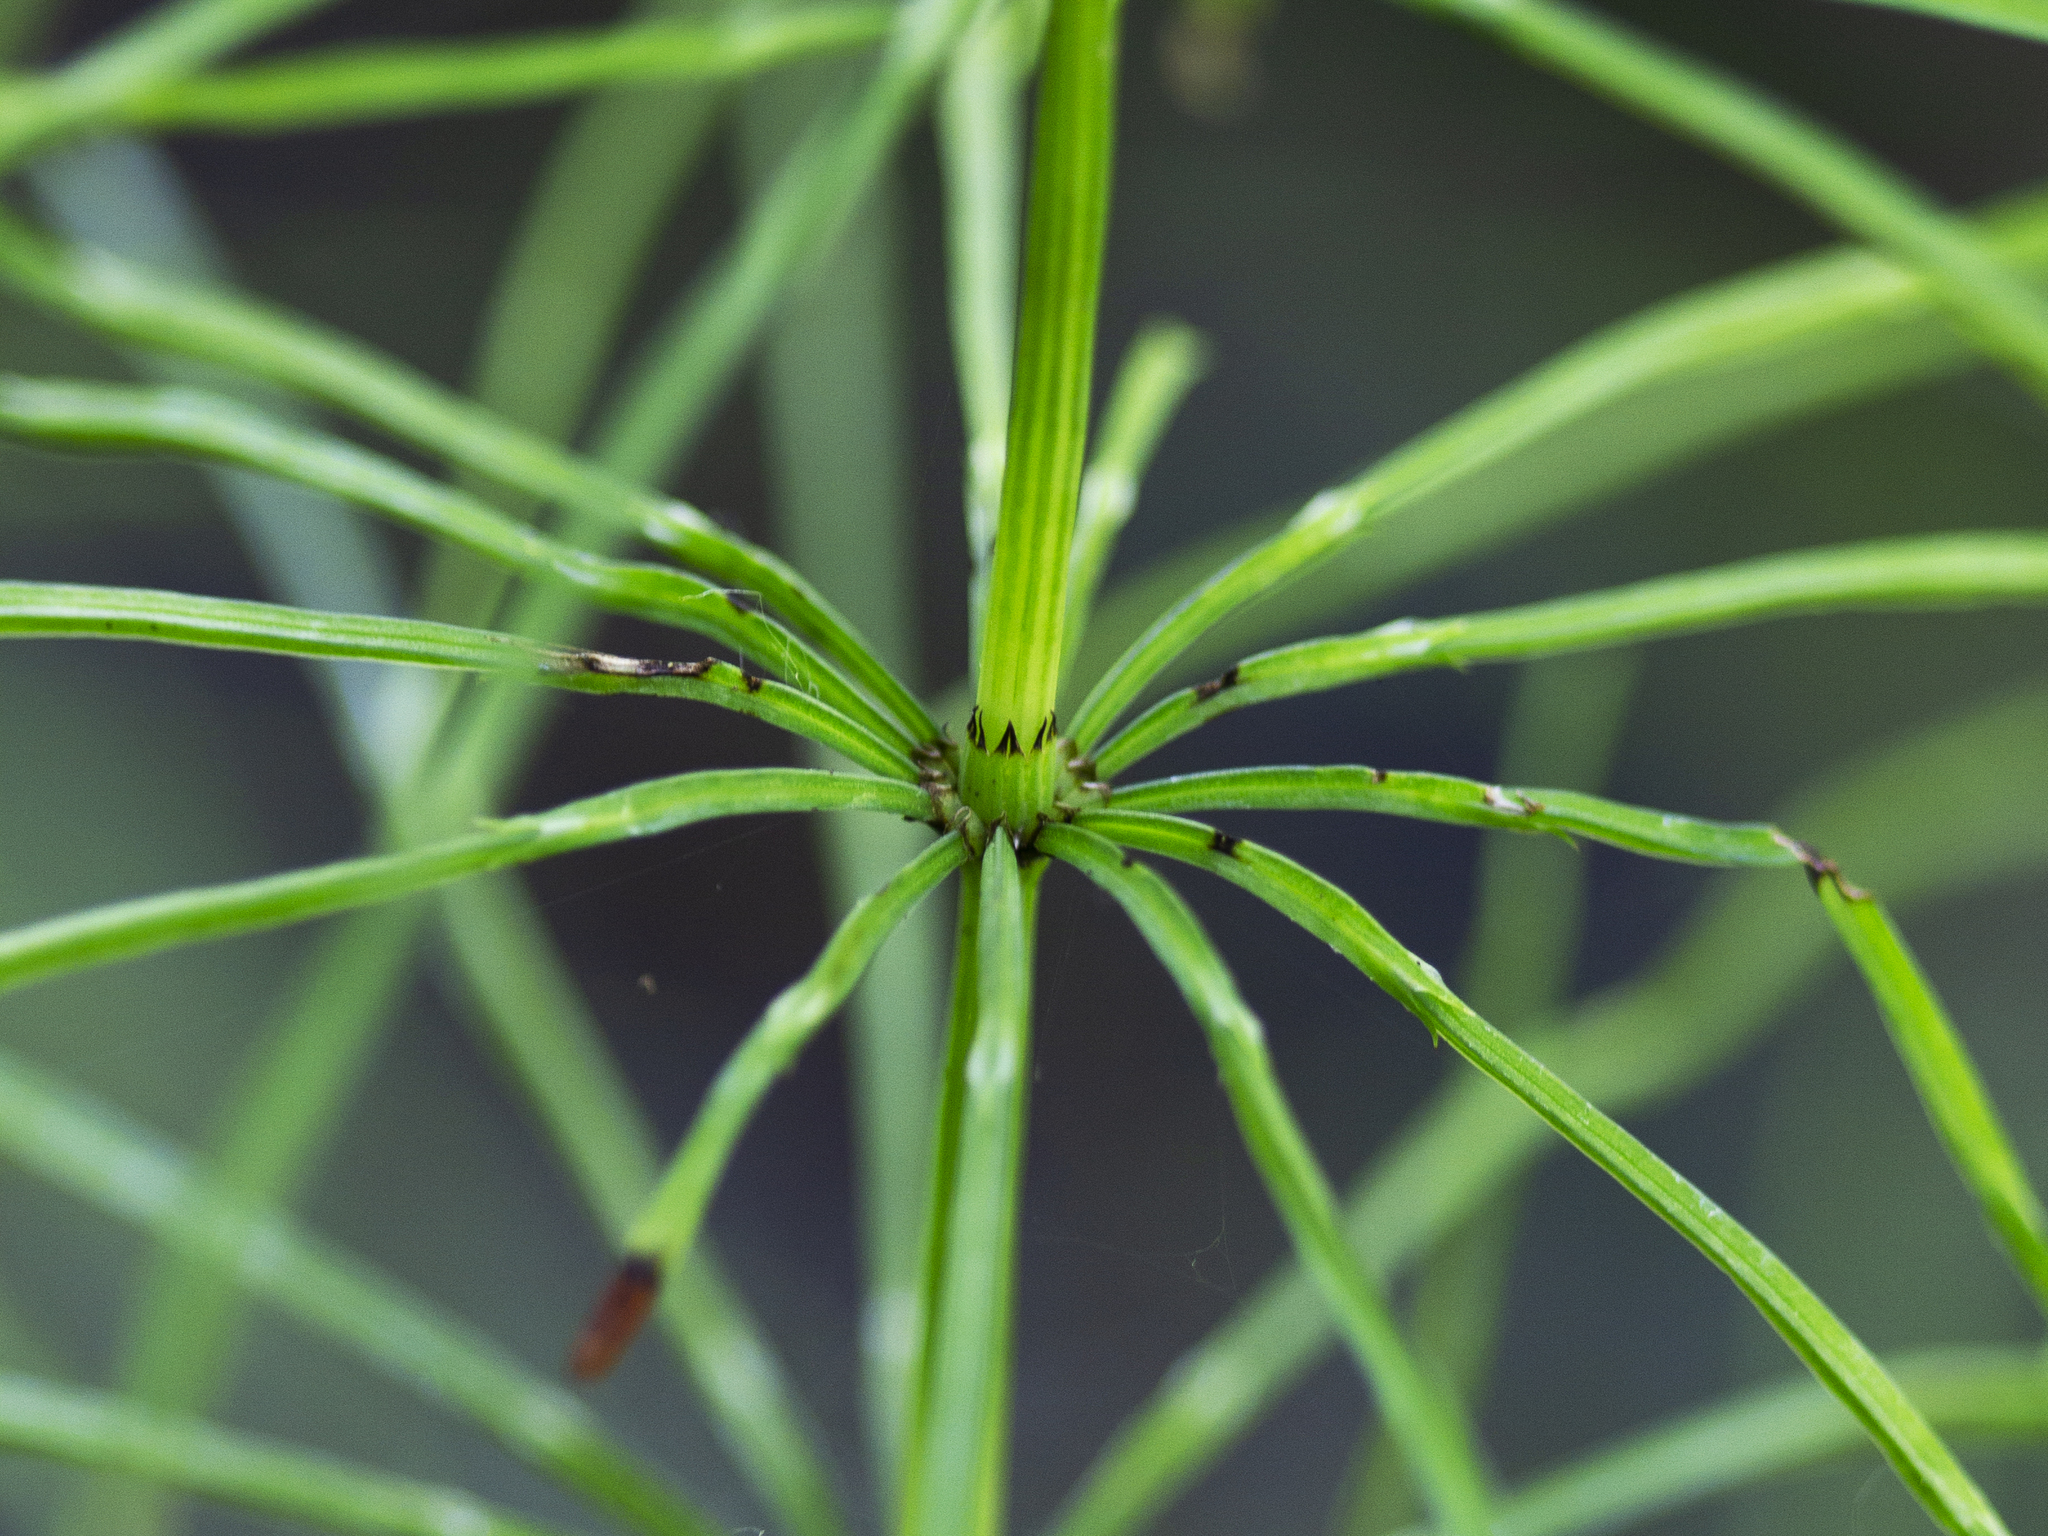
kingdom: Plantae
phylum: Tracheophyta
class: Polypodiopsida
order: Equisetales
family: Equisetaceae
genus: Equisetum
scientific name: Equisetum arvense
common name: Field horsetail
